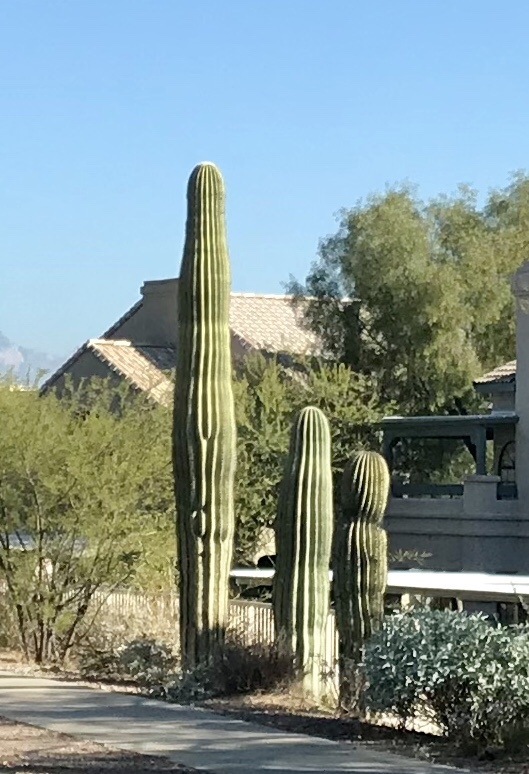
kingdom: Plantae
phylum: Tracheophyta
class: Magnoliopsida
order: Caryophyllales
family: Cactaceae
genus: Carnegiea
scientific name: Carnegiea gigantea
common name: Saguaro
